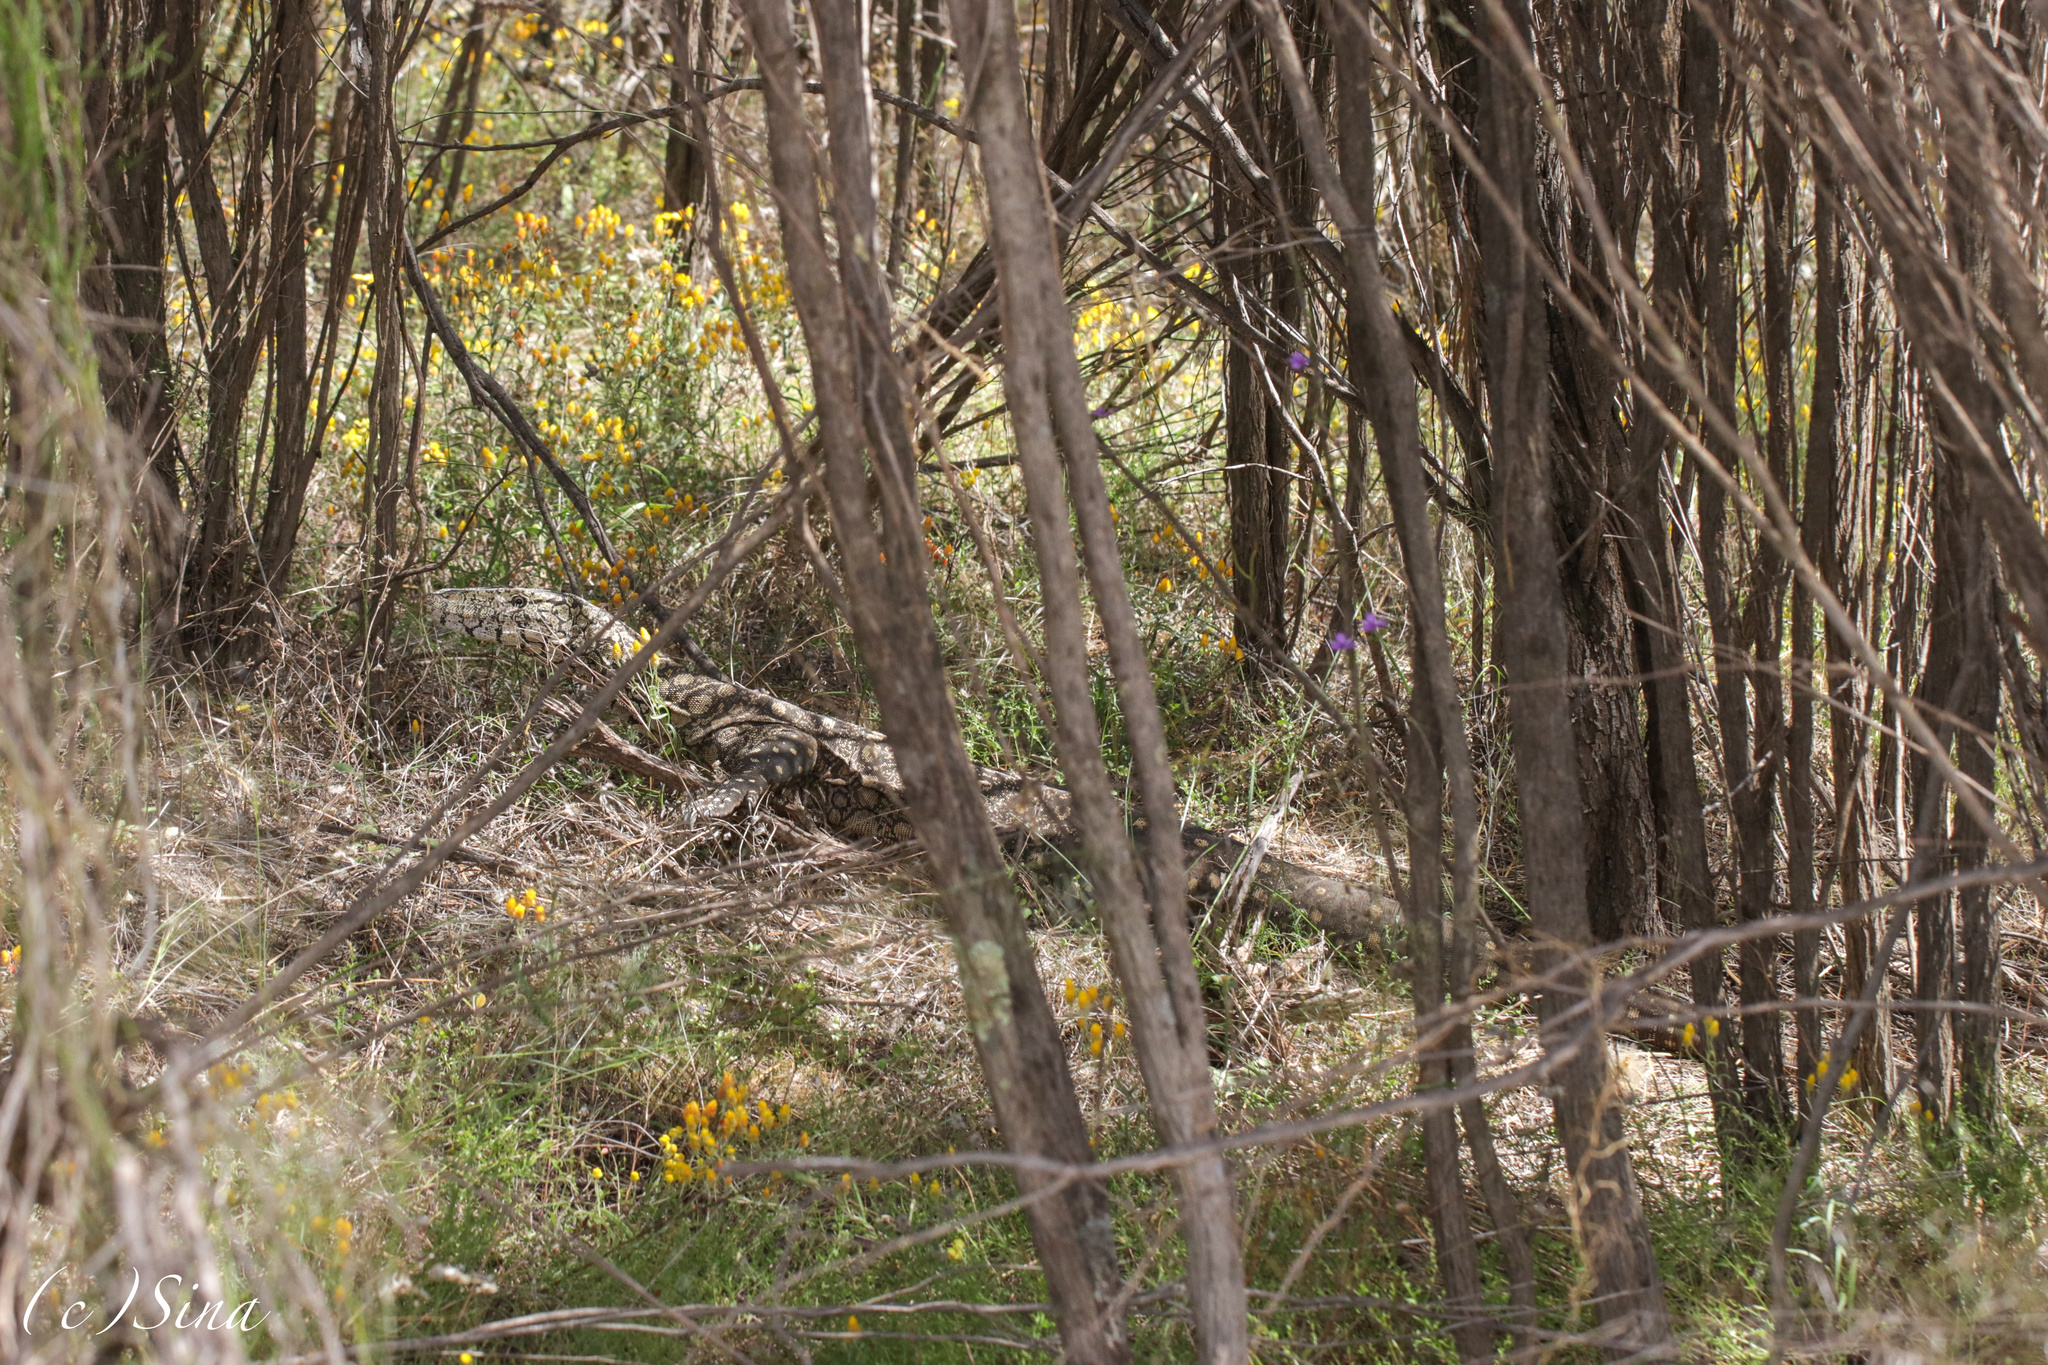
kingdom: Animalia
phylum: Chordata
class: Squamata
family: Varanidae
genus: Varanus
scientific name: Varanus giganteus
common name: Perentie
